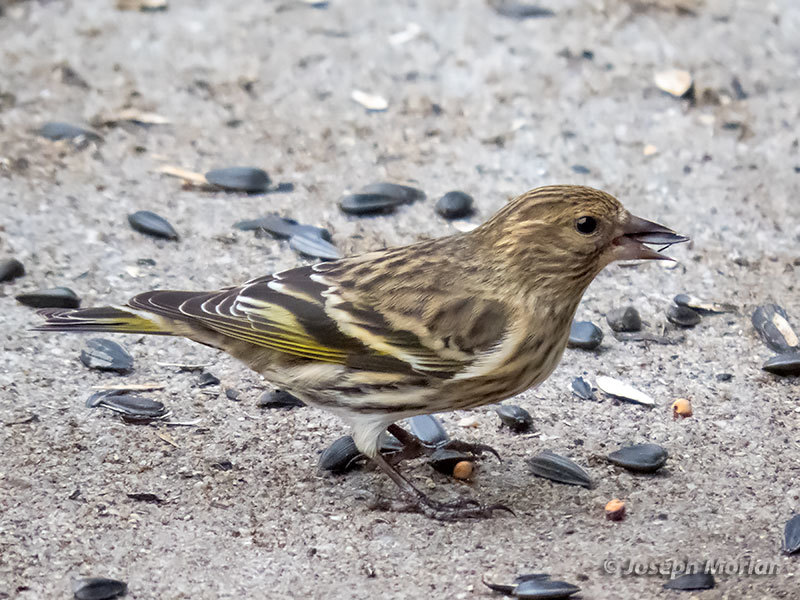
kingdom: Animalia
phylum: Chordata
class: Aves
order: Passeriformes
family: Fringillidae
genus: Spinus
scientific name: Spinus pinus
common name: Pine siskin
